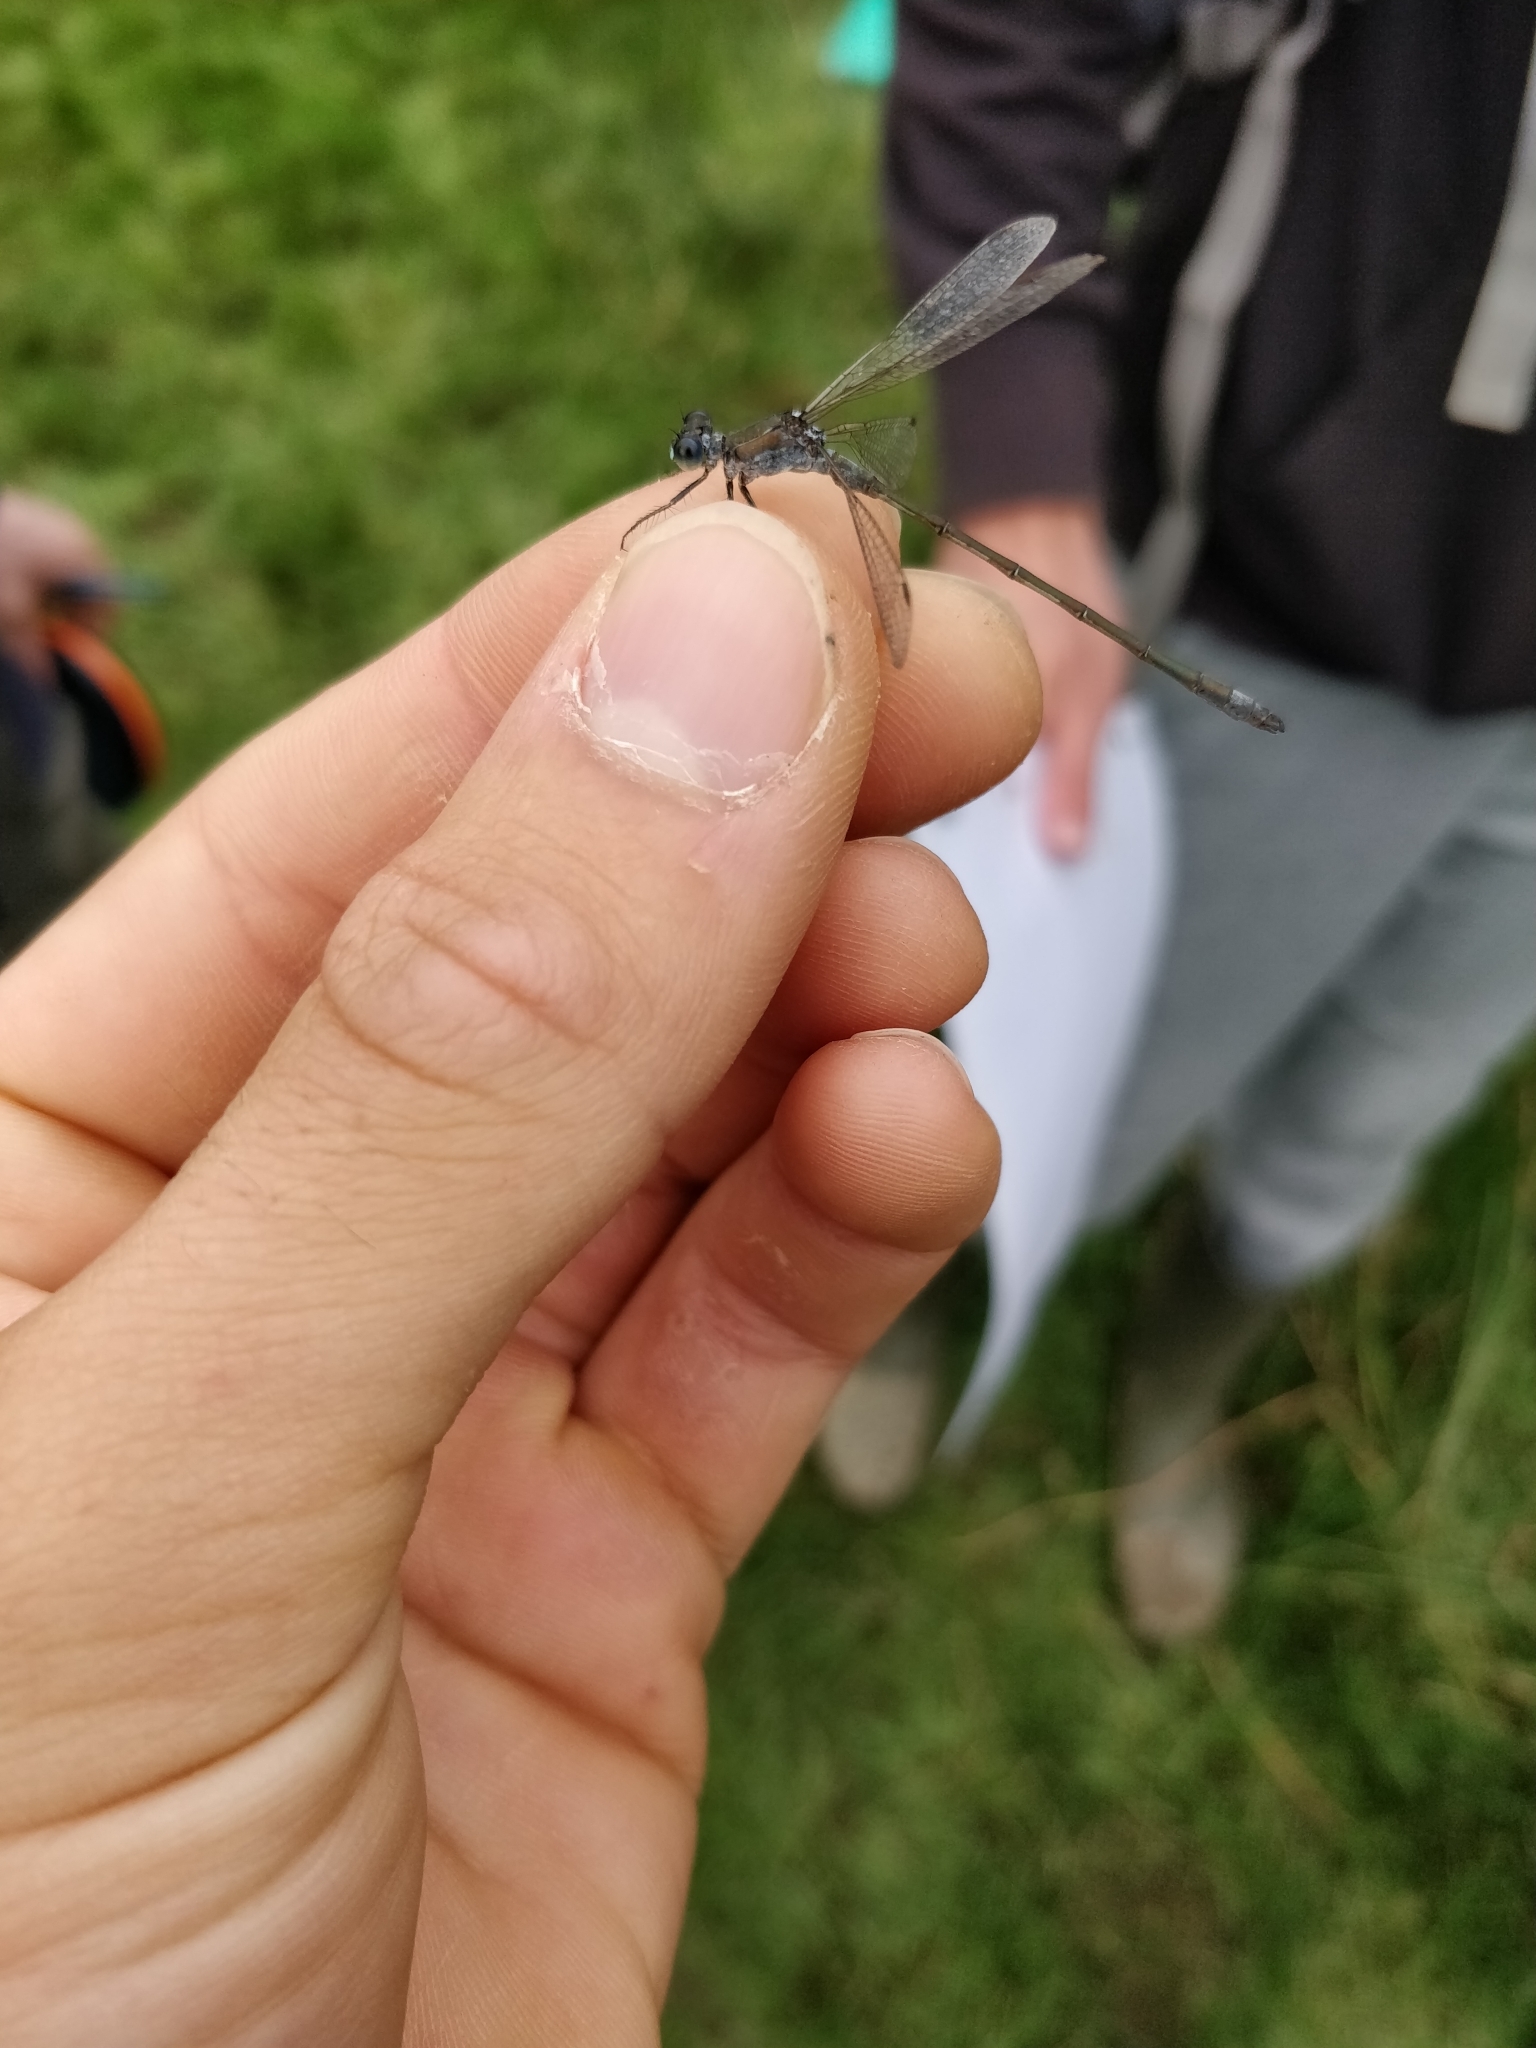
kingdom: Animalia
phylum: Arthropoda
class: Insecta
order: Odonata
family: Lestidae
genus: Lestes
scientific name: Lestes sponsa
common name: Common spreadwing
